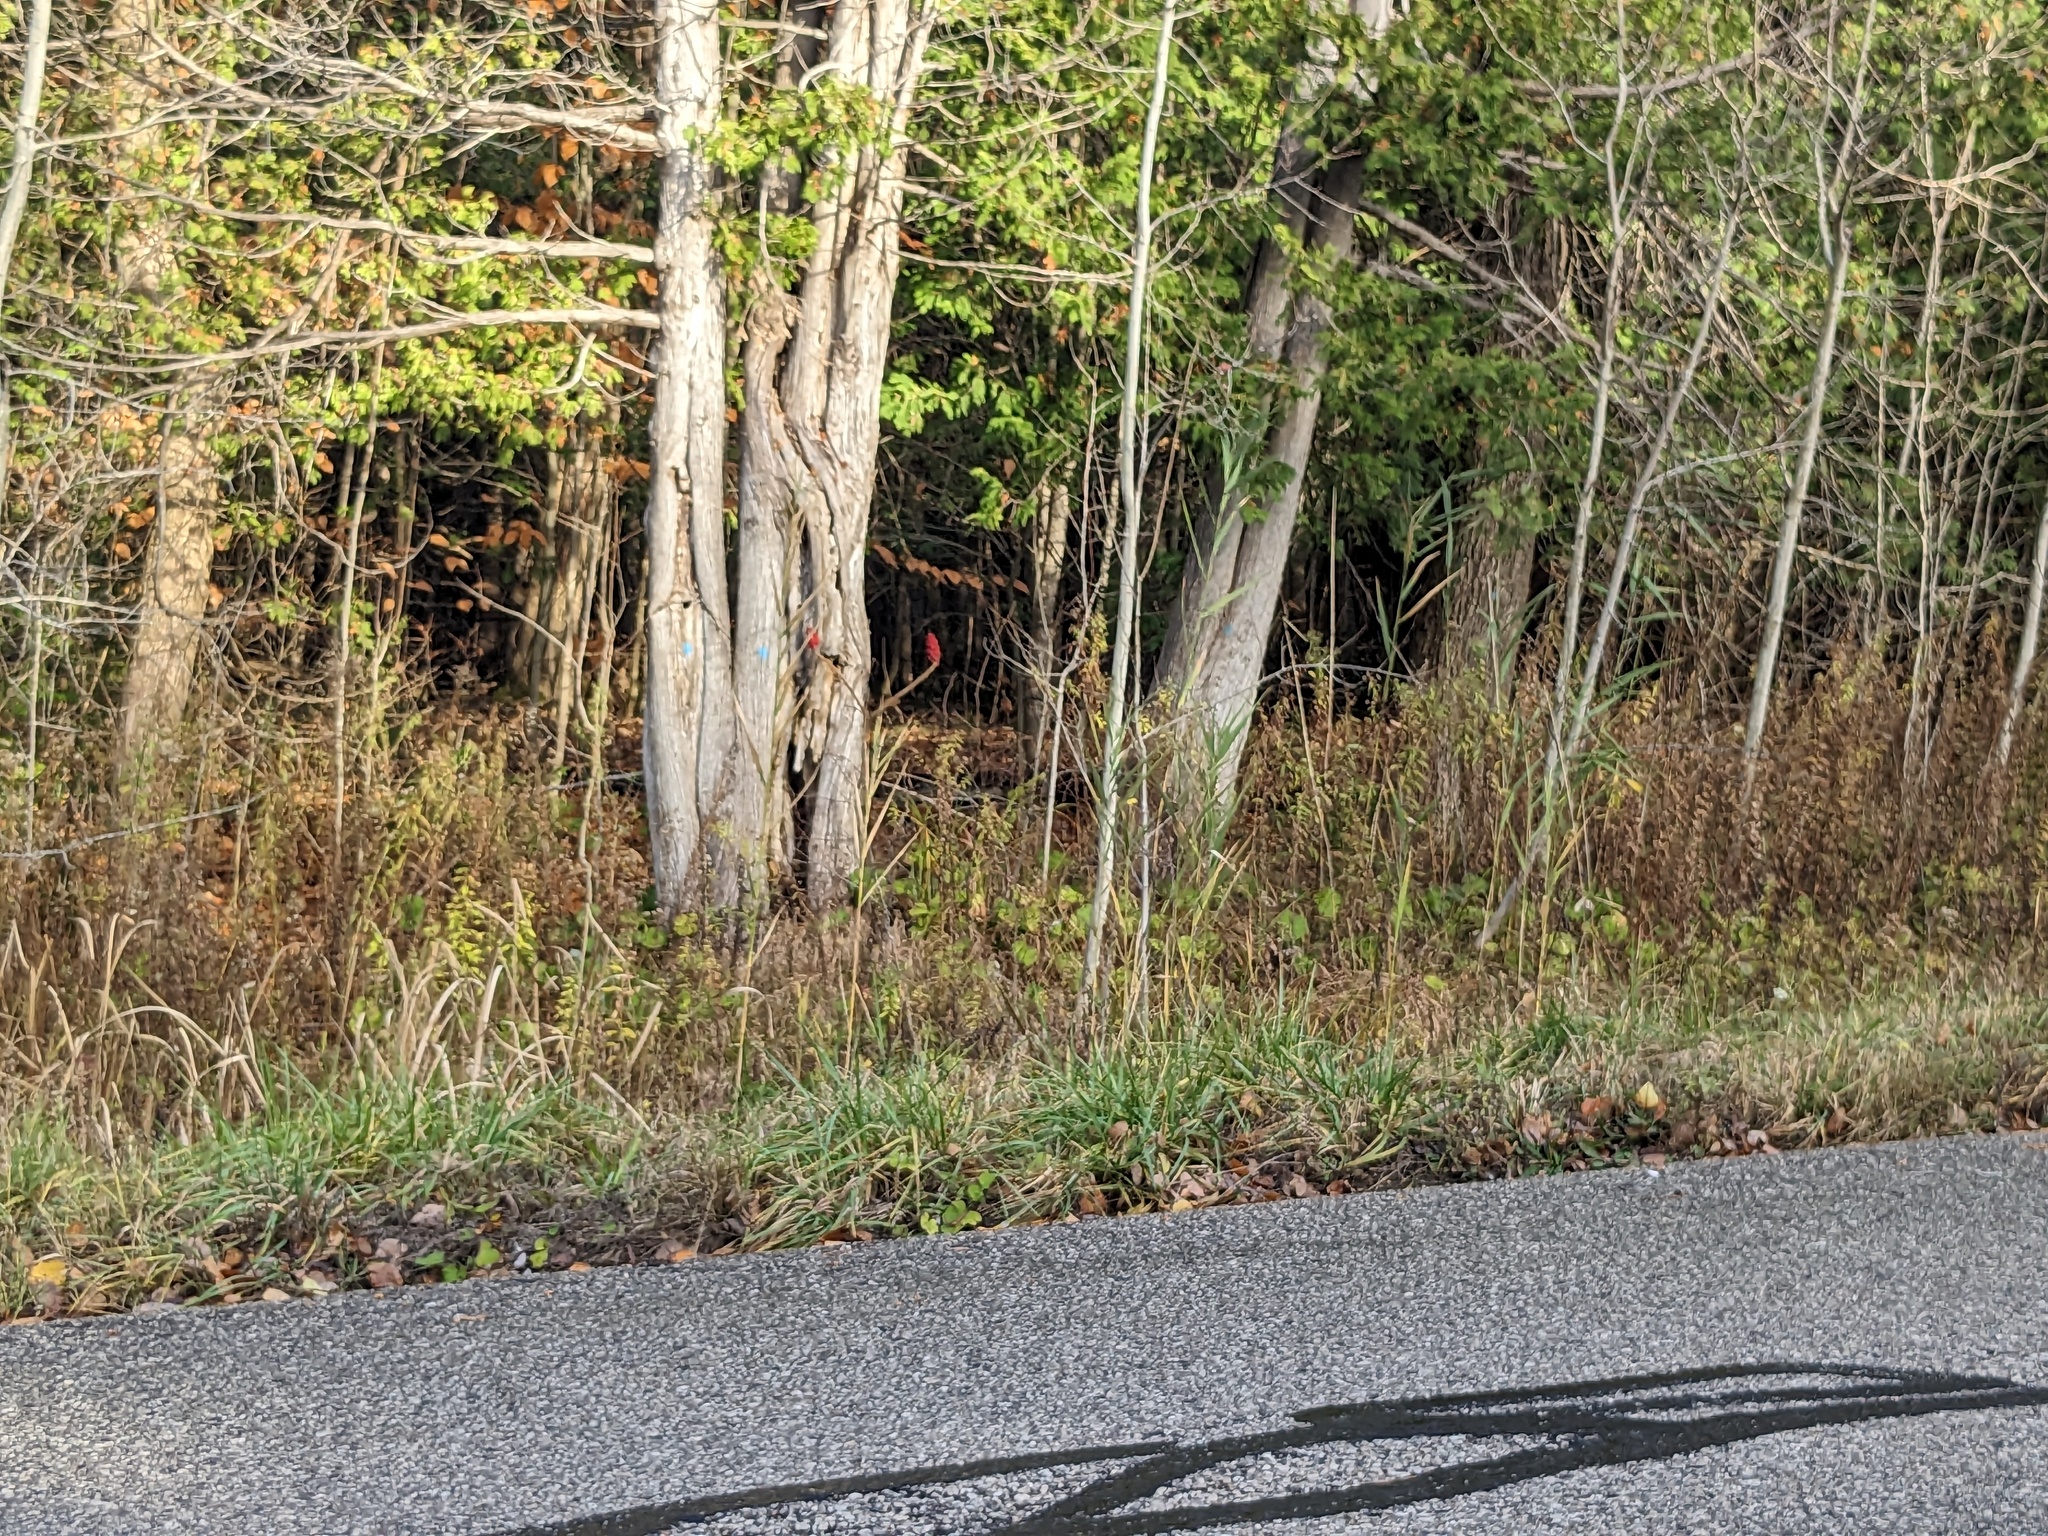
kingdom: Plantae
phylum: Tracheophyta
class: Liliopsida
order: Poales
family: Poaceae
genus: Phragmites
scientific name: Phragmites australis
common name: Common reed
